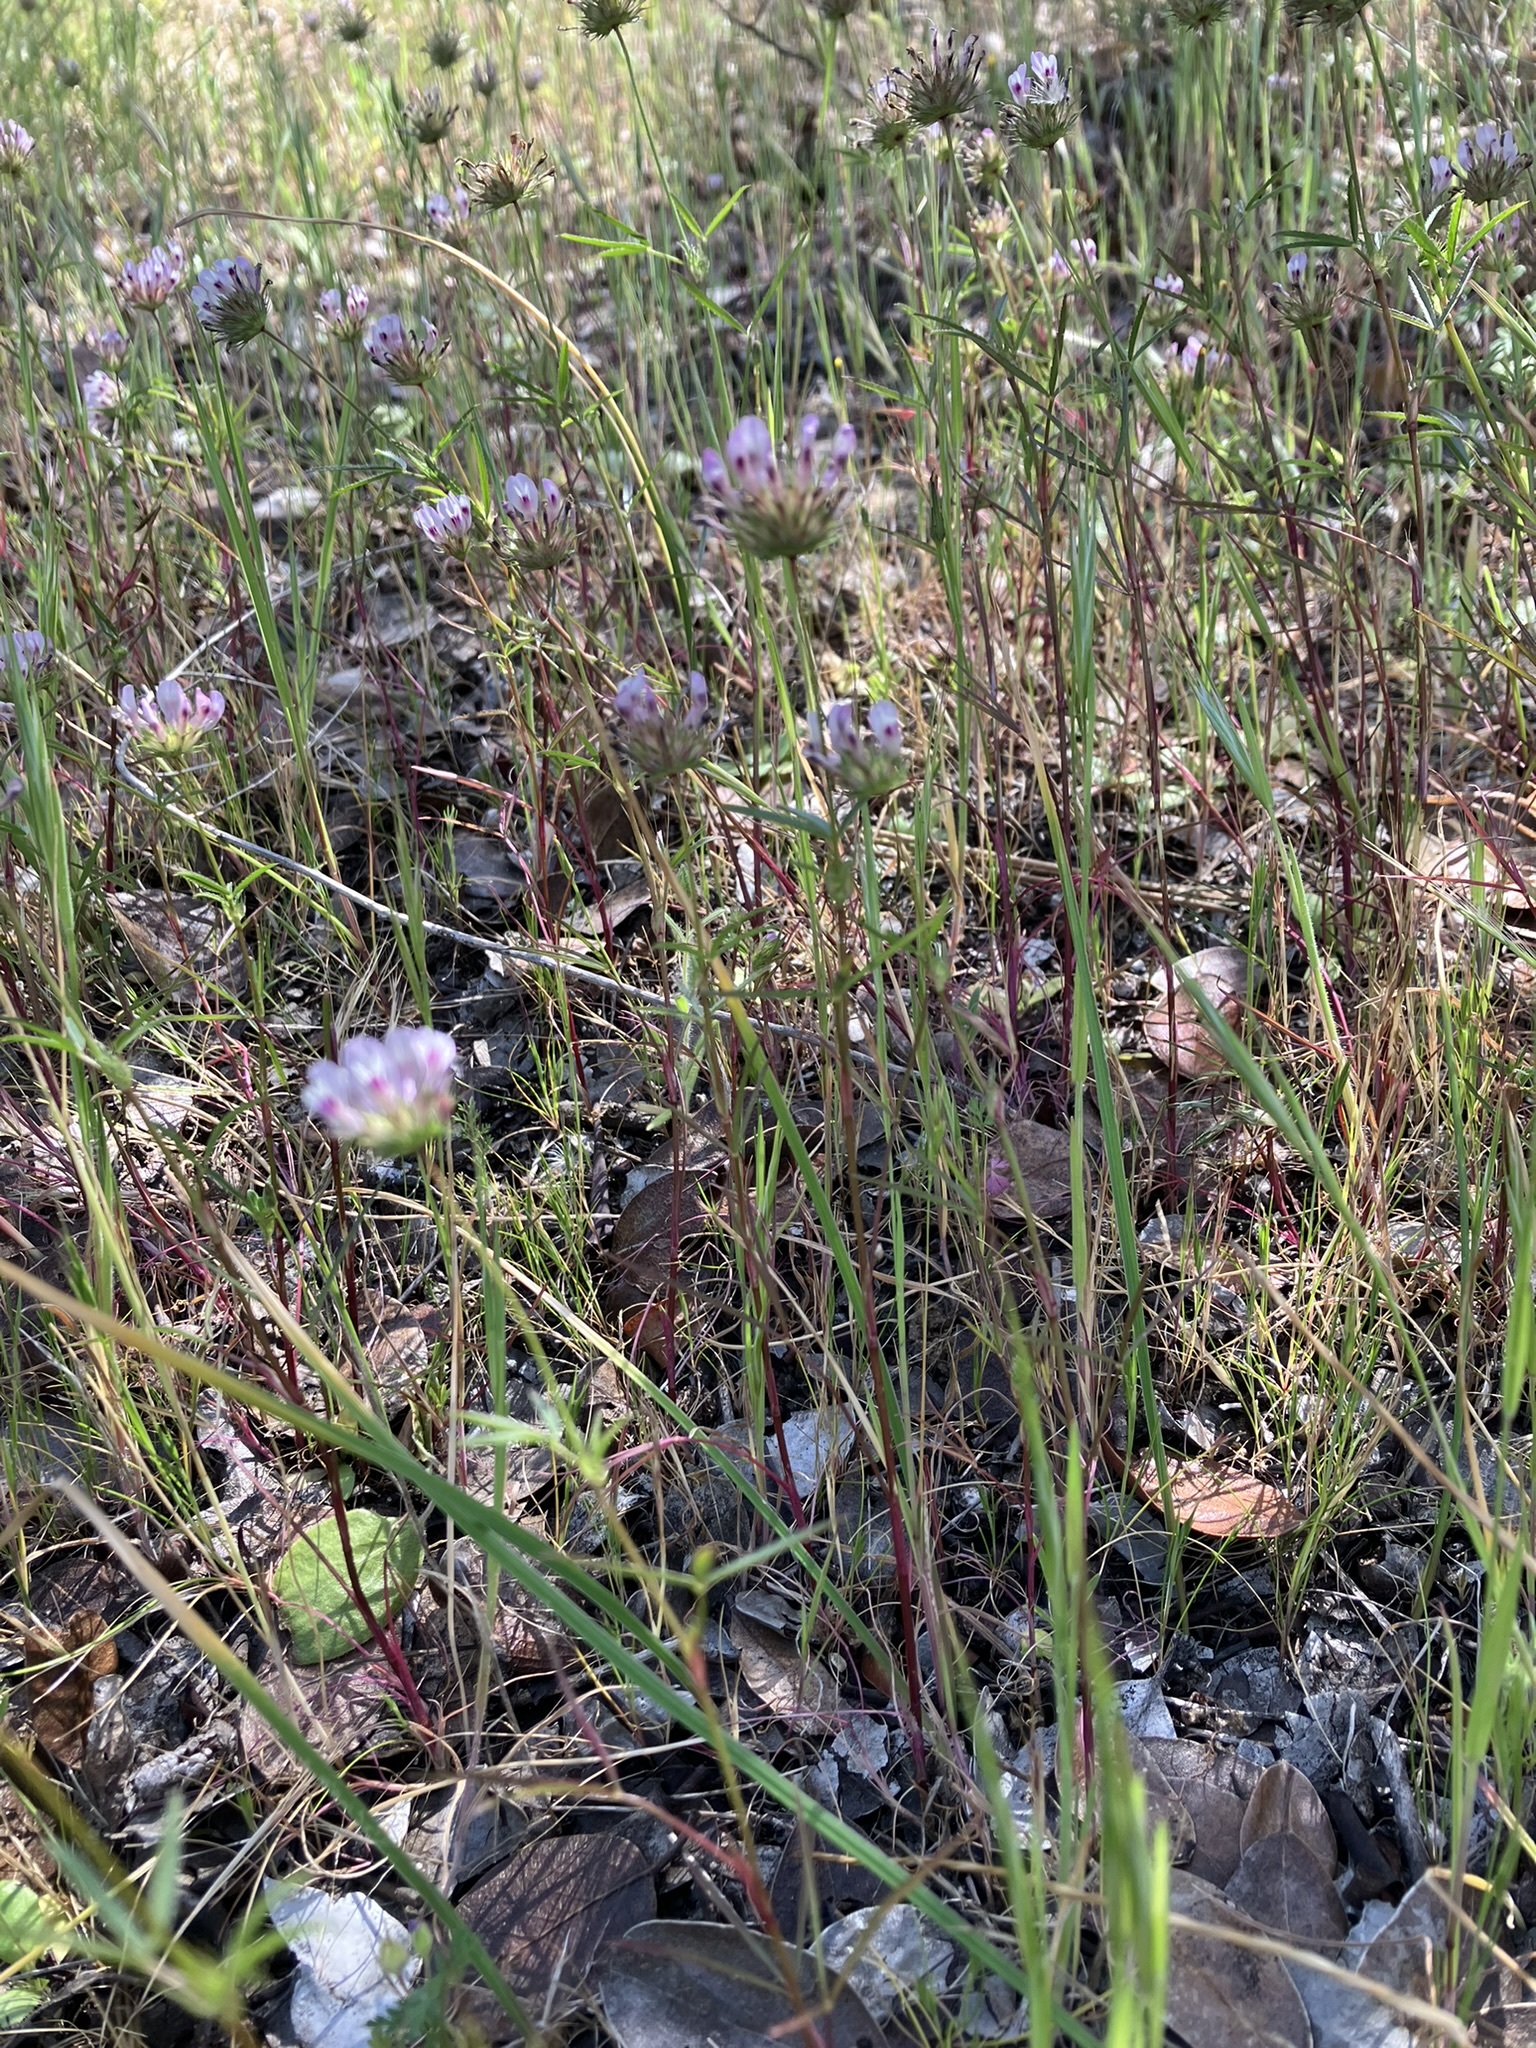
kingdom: Plantae
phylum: Tracheophyta
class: Magnoliopsida
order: Fabales
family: Fabaceae
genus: Trifolium
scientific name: Trifolium willdenovii
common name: Tomcat clover
